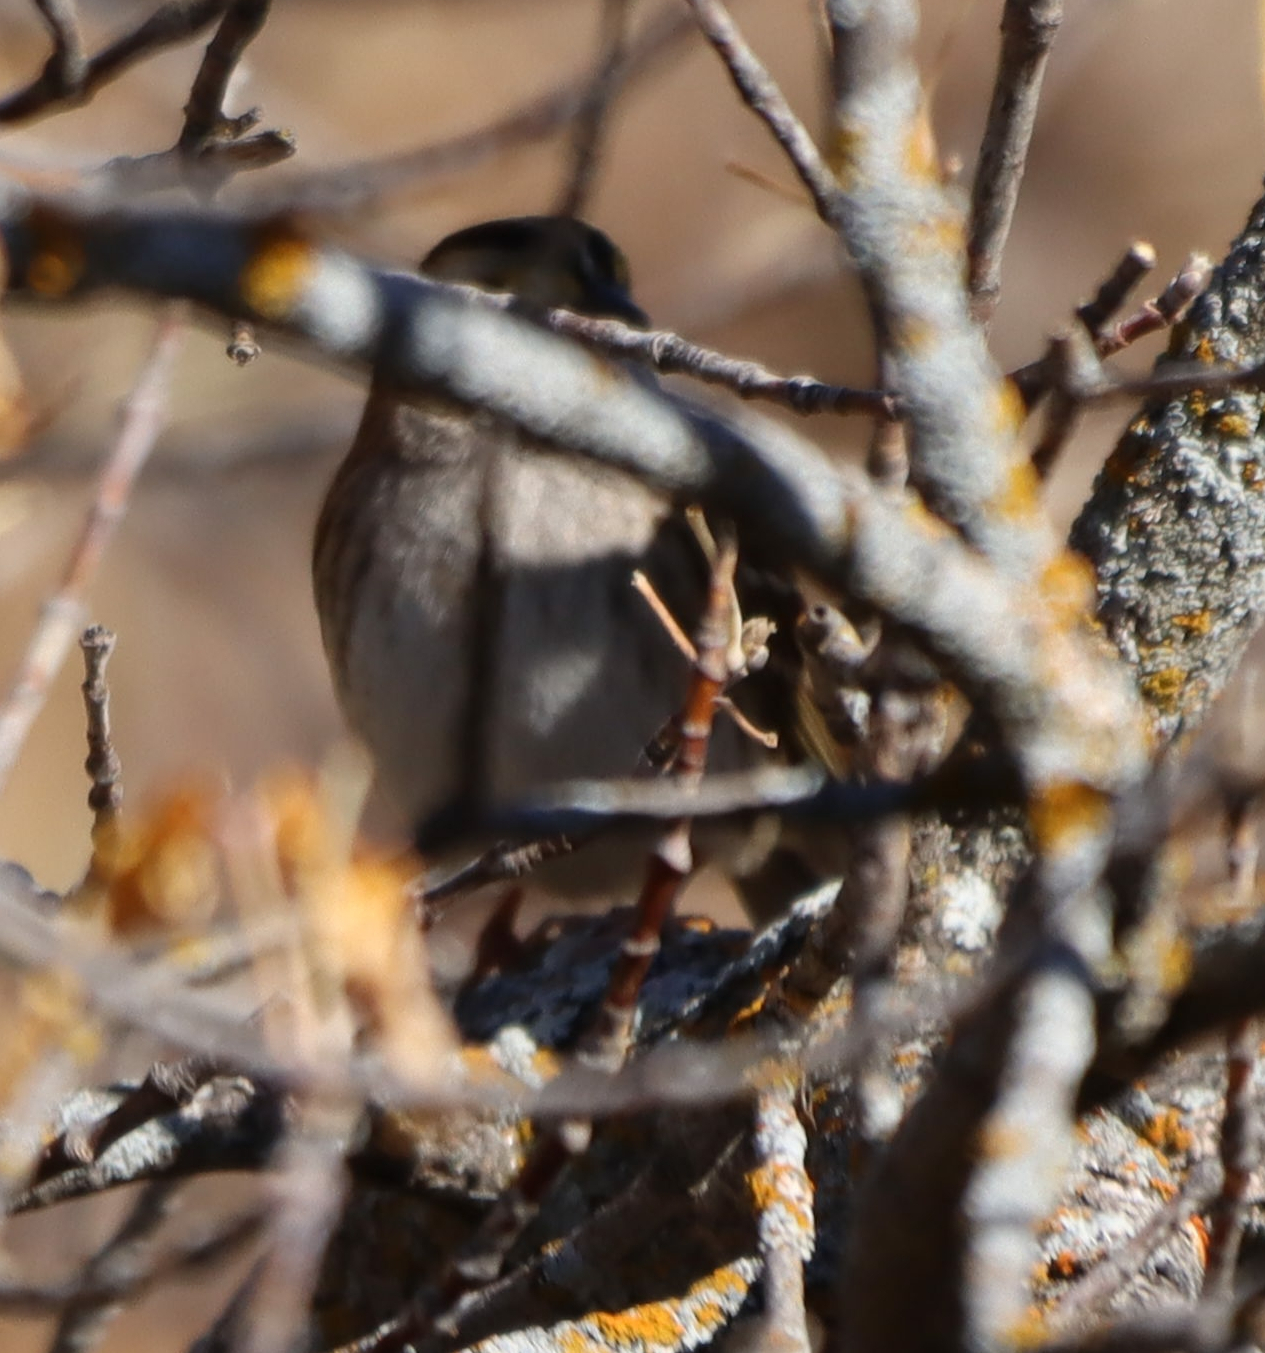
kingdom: Animalia
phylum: Chordata
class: Aves
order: Passeriformes
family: Passerellidae
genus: Zonotrichia
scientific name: Zonotrichia albicollis
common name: White-throated sparrow
